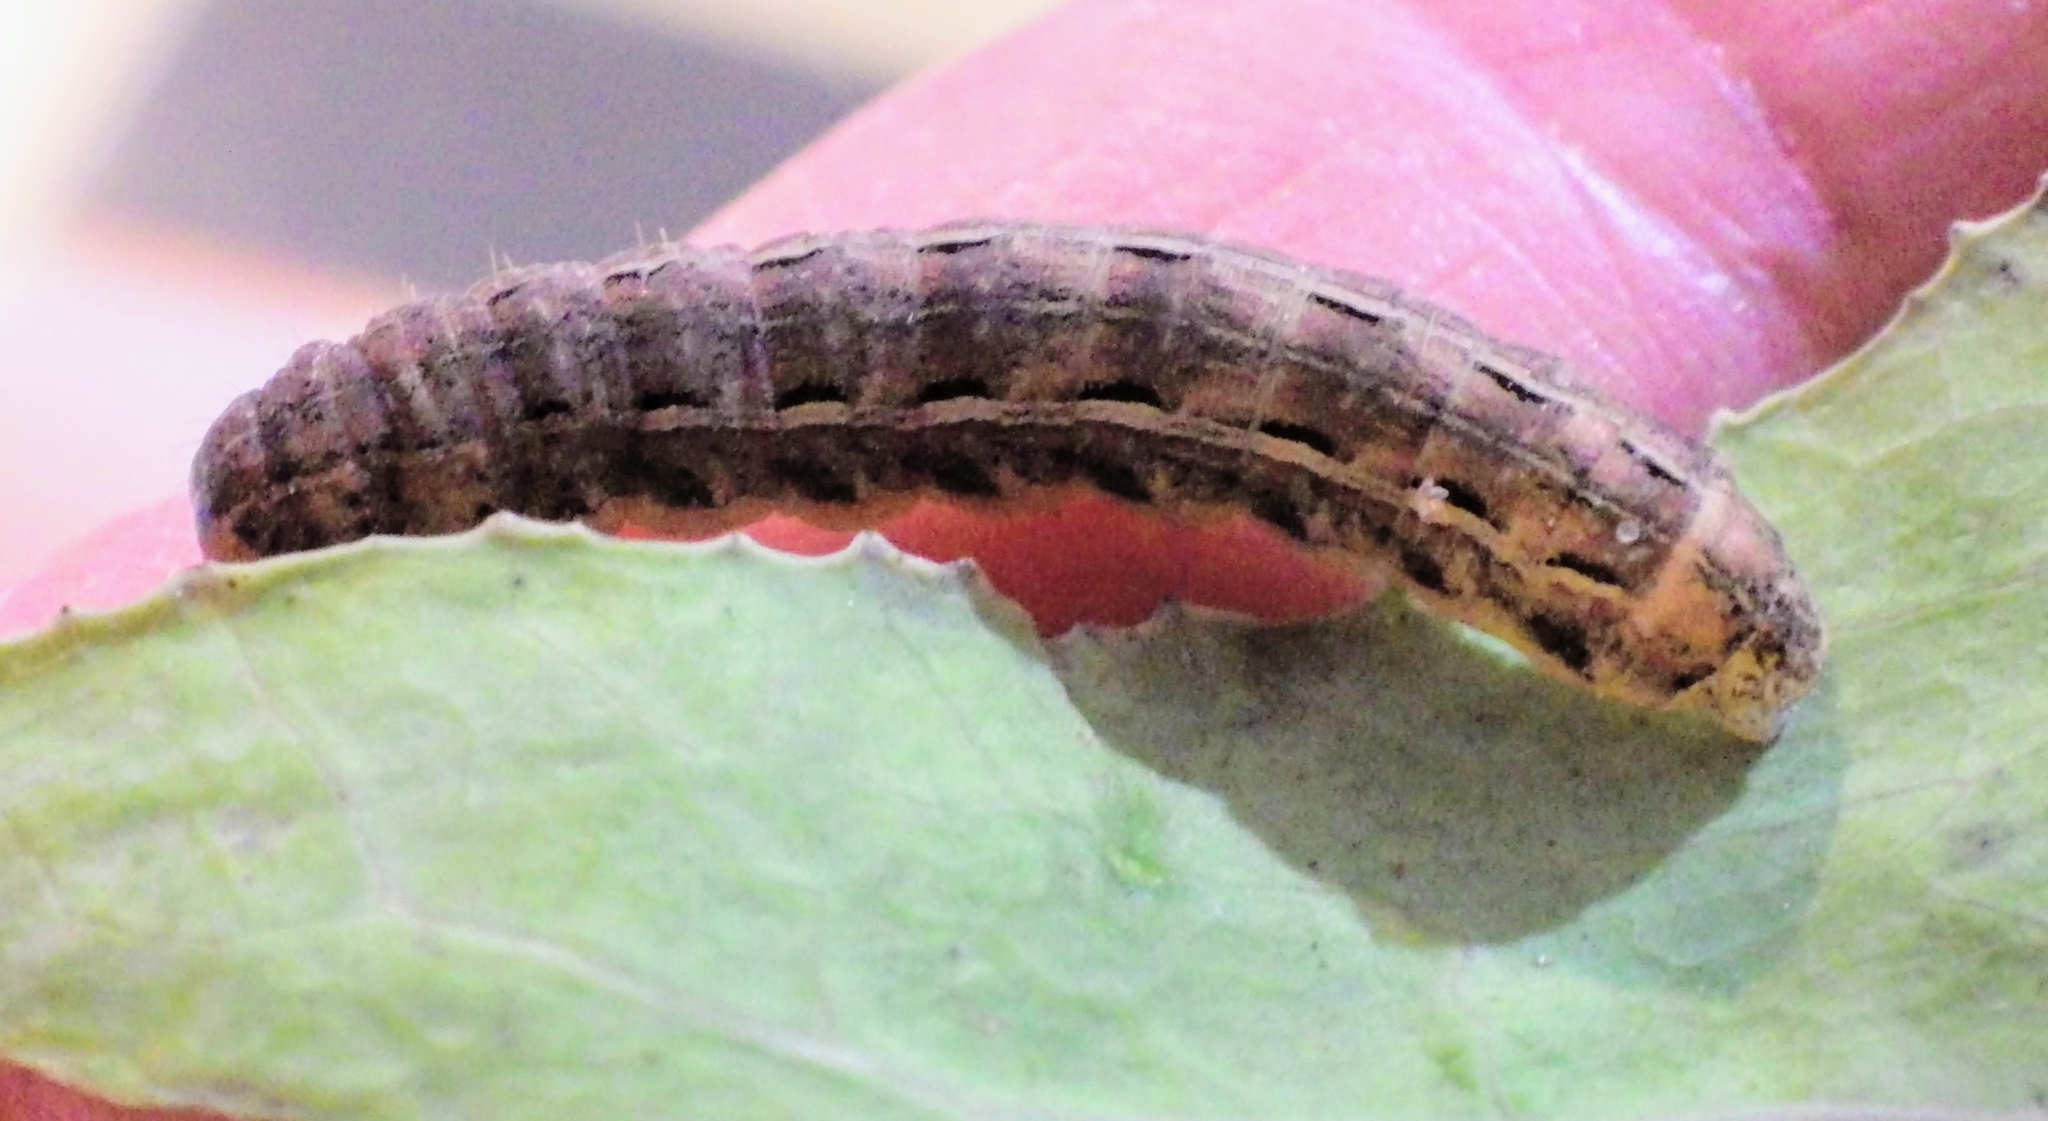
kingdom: Animalia
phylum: Arthropoda
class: Insecta
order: Lepidoptera
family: Noctuidae
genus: Noctua
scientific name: Noctua pronuba
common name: Large yellow underwing
